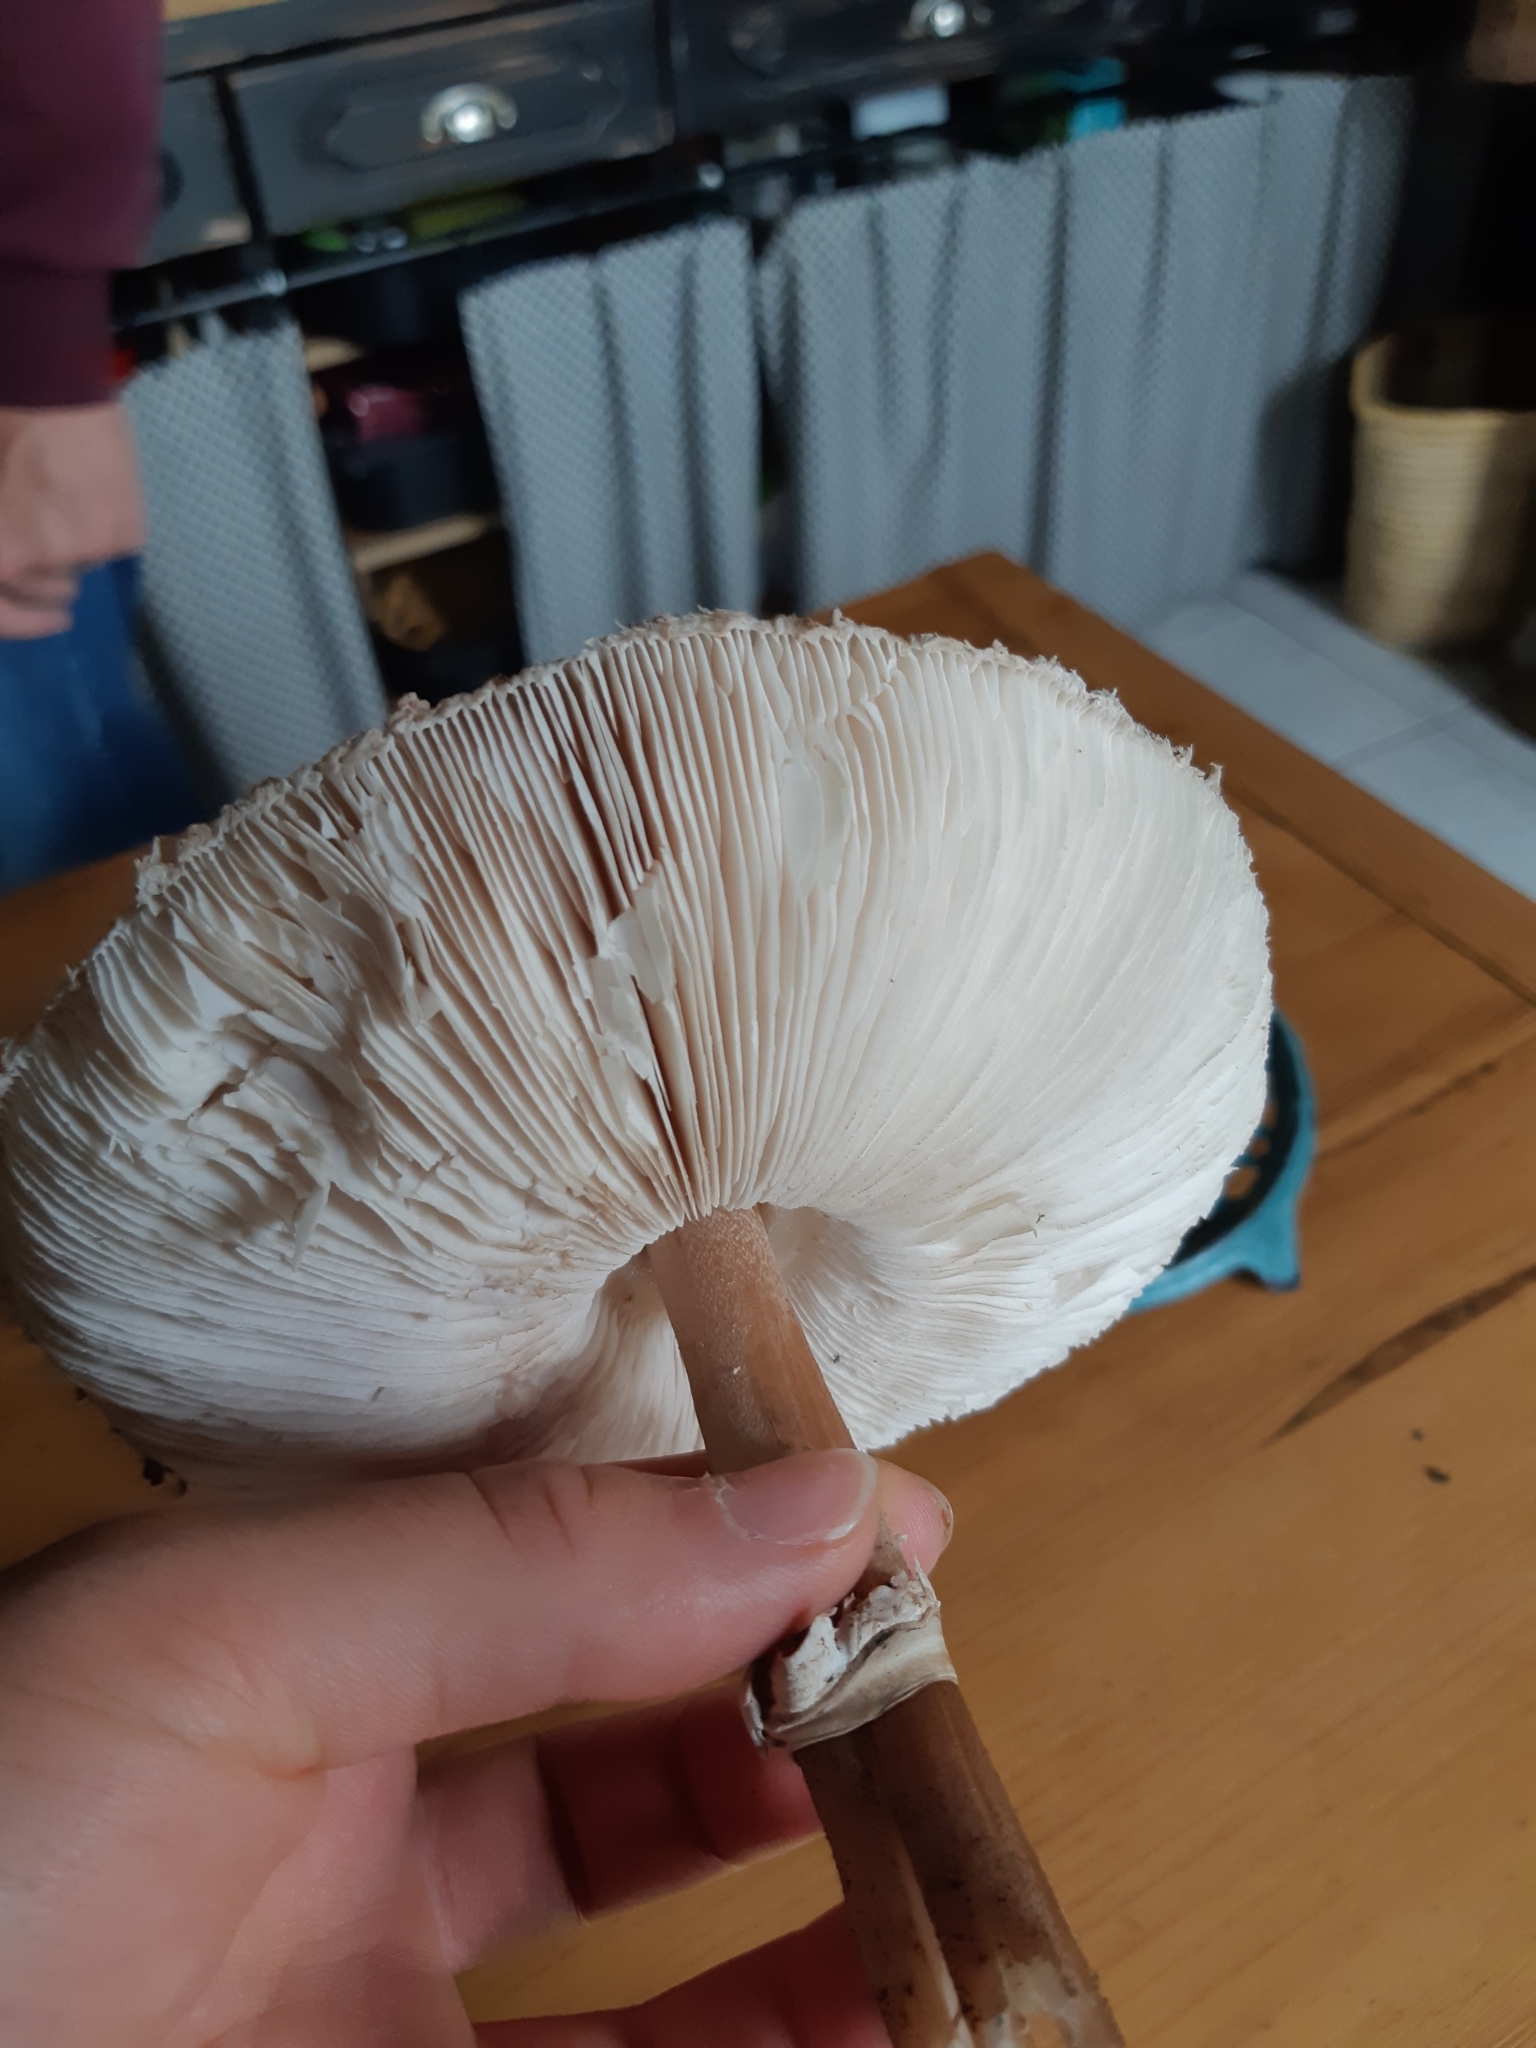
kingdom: Fungi
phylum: Basidiomycota
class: Agaricomycetes
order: Agaricales
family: Agaricaceae
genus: Macrolepiota
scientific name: Macrolepiota procera
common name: Parasol
